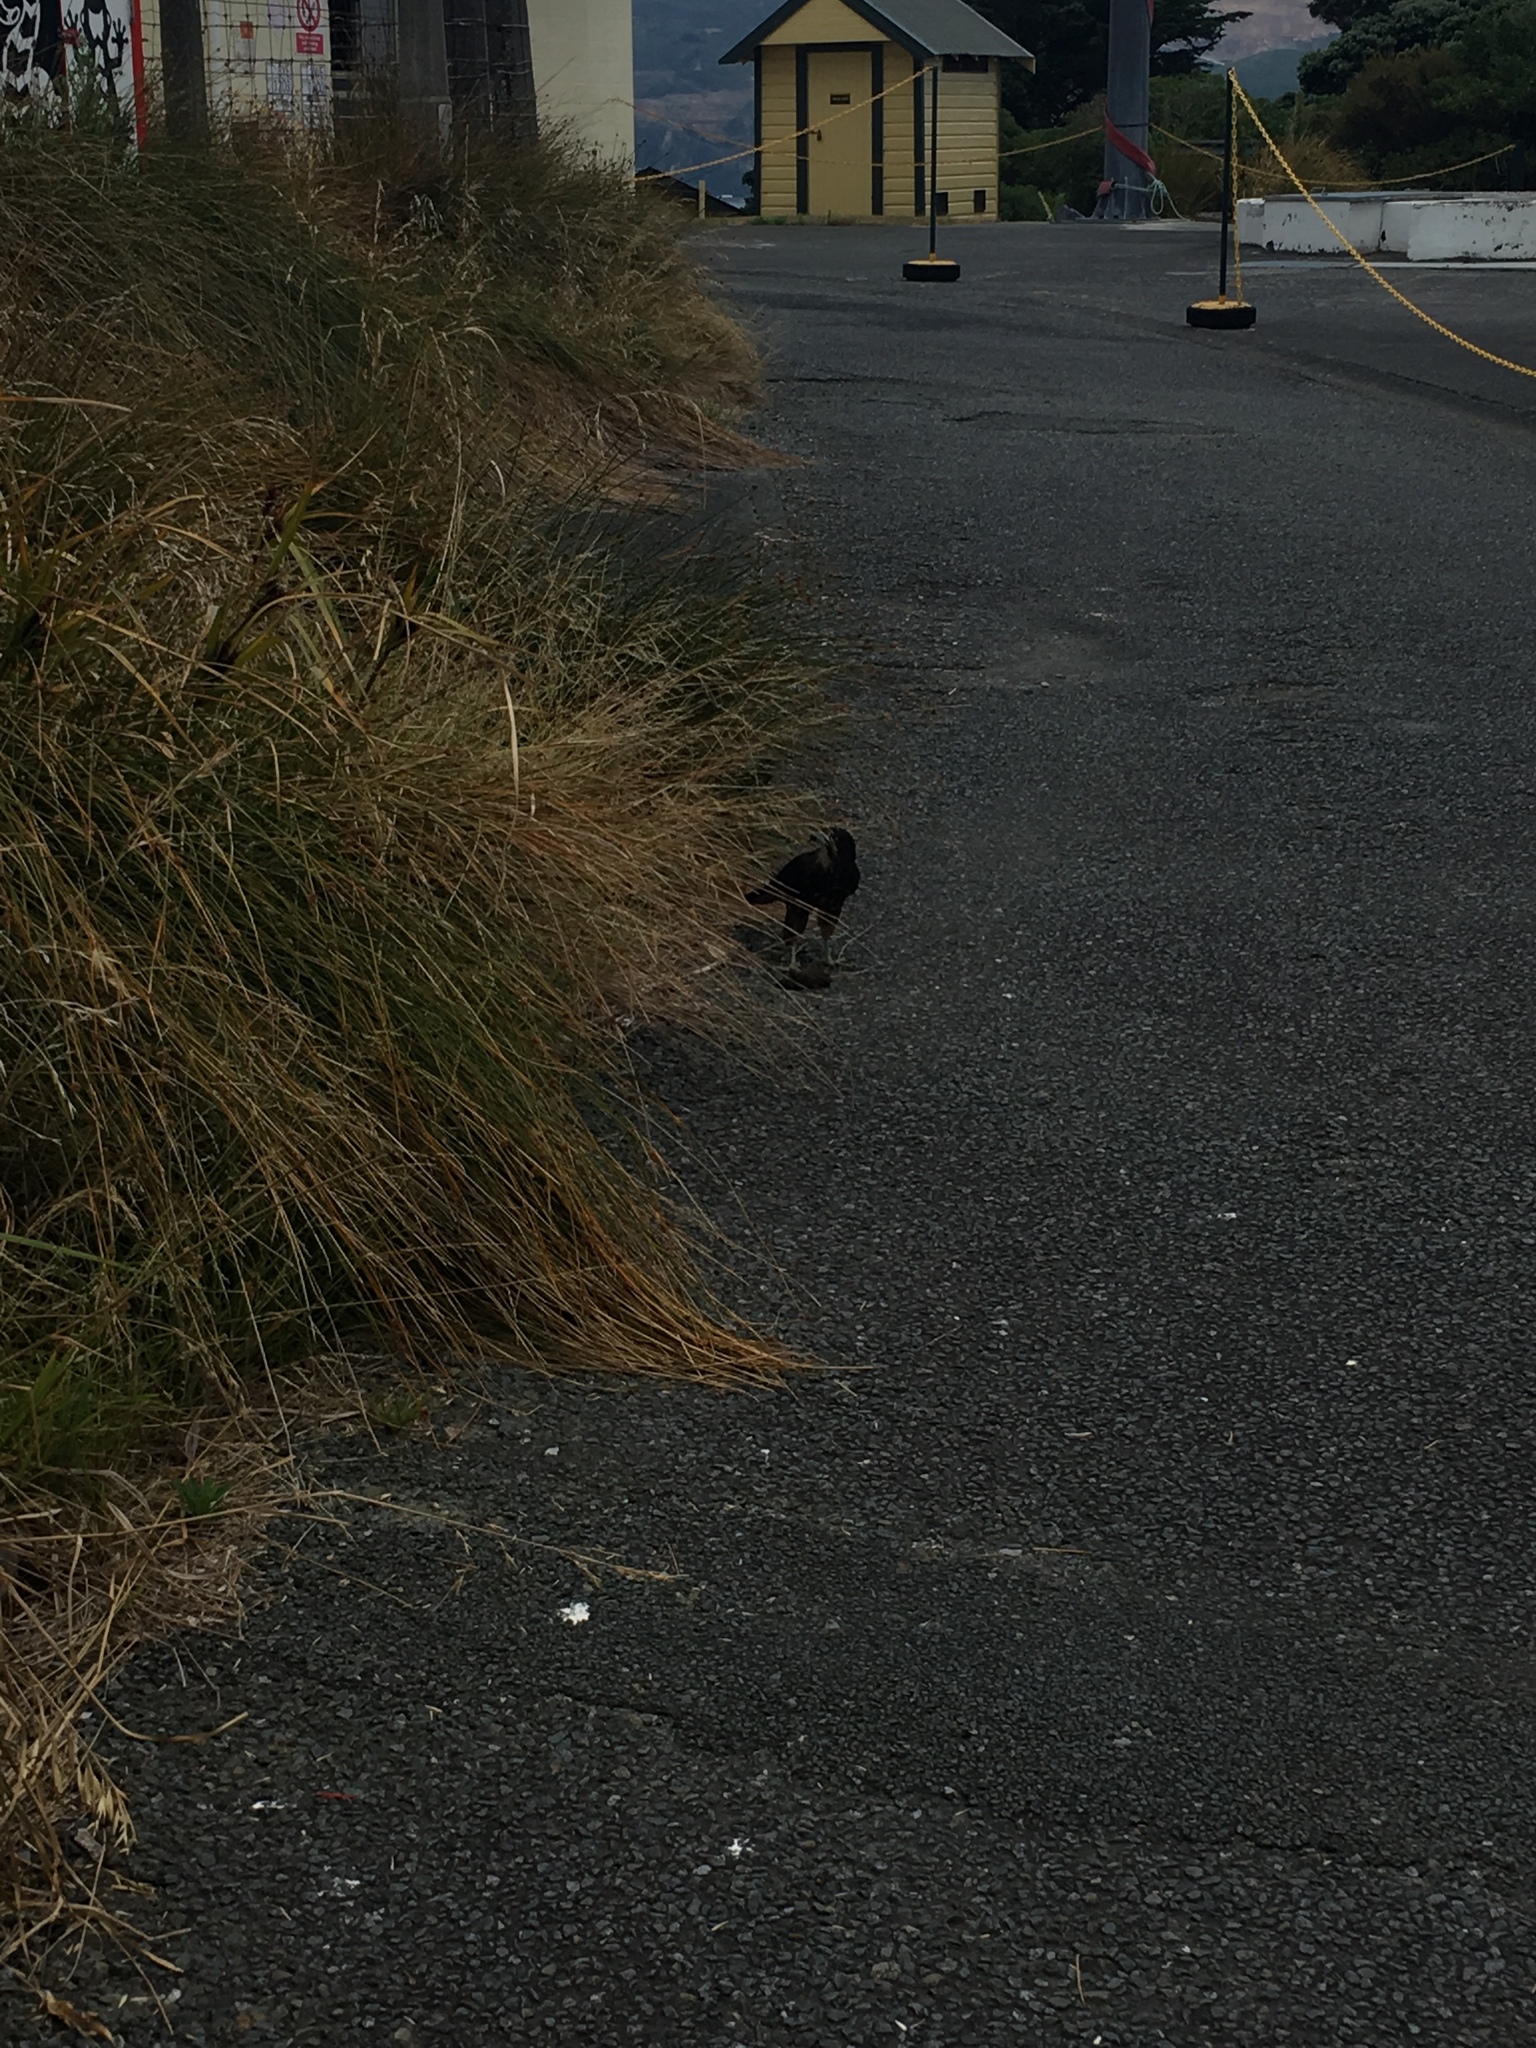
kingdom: Animalia
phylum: Chordata
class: Aves
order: Falconiformes
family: Falconidae
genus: Falco
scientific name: Falco novaeseelandiae
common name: New zealand falcon
